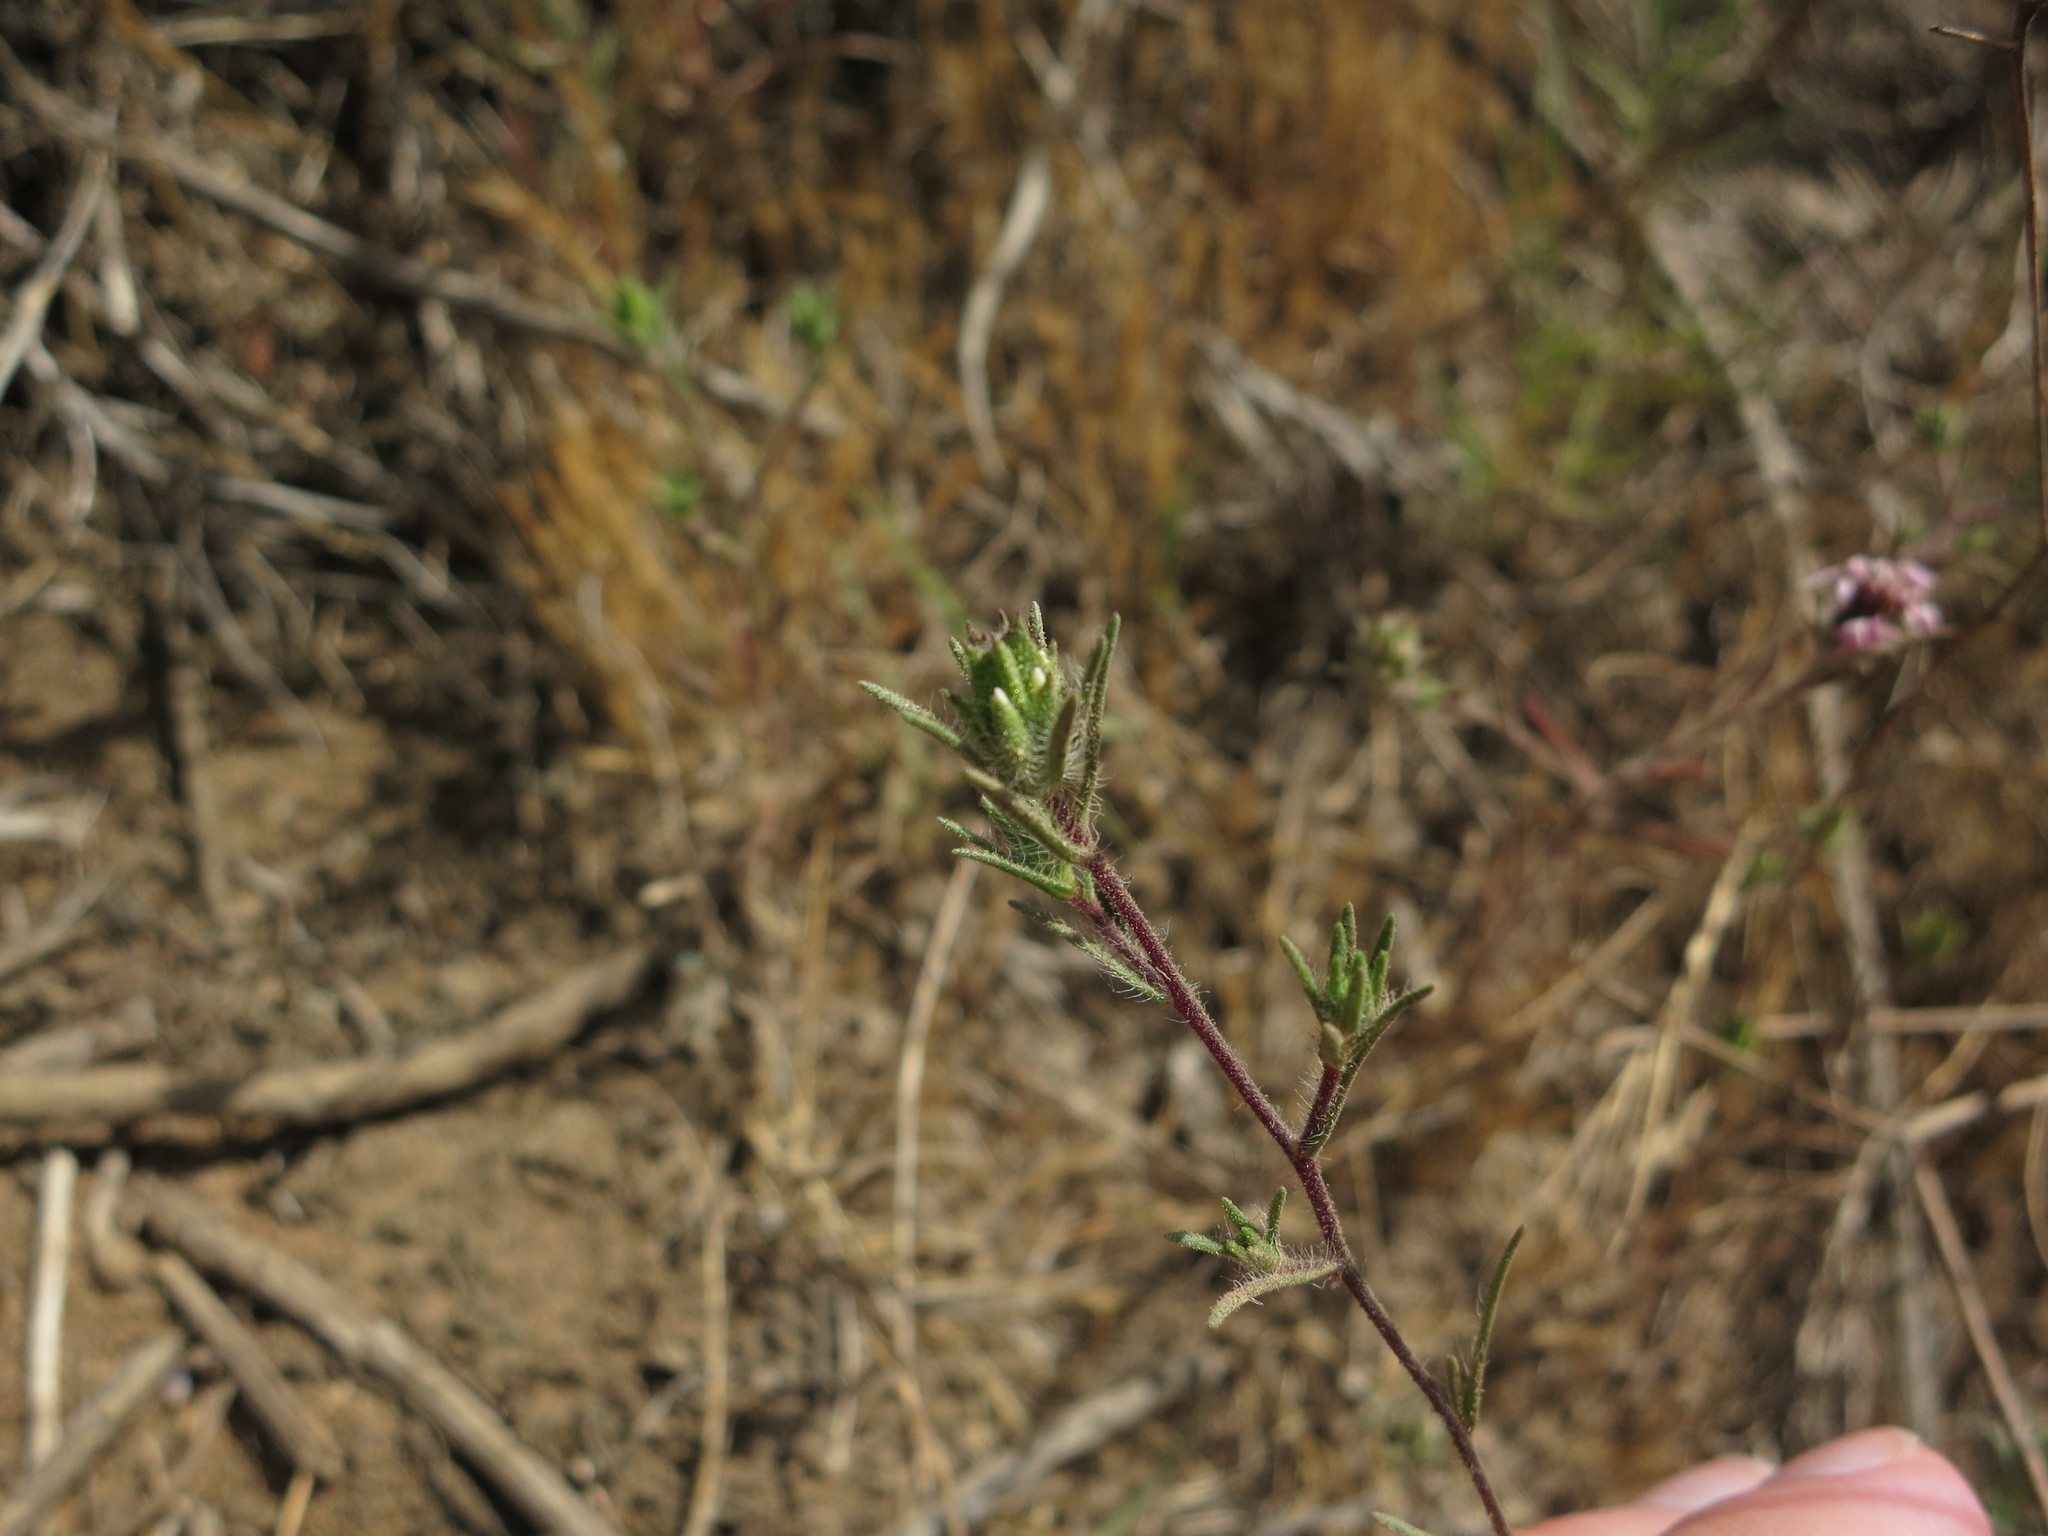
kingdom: Plantae
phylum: Tracheophyta
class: Magnoliopsida
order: Asterales
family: Asteraceae
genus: Osmadenia
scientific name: Osmadenia tenella
